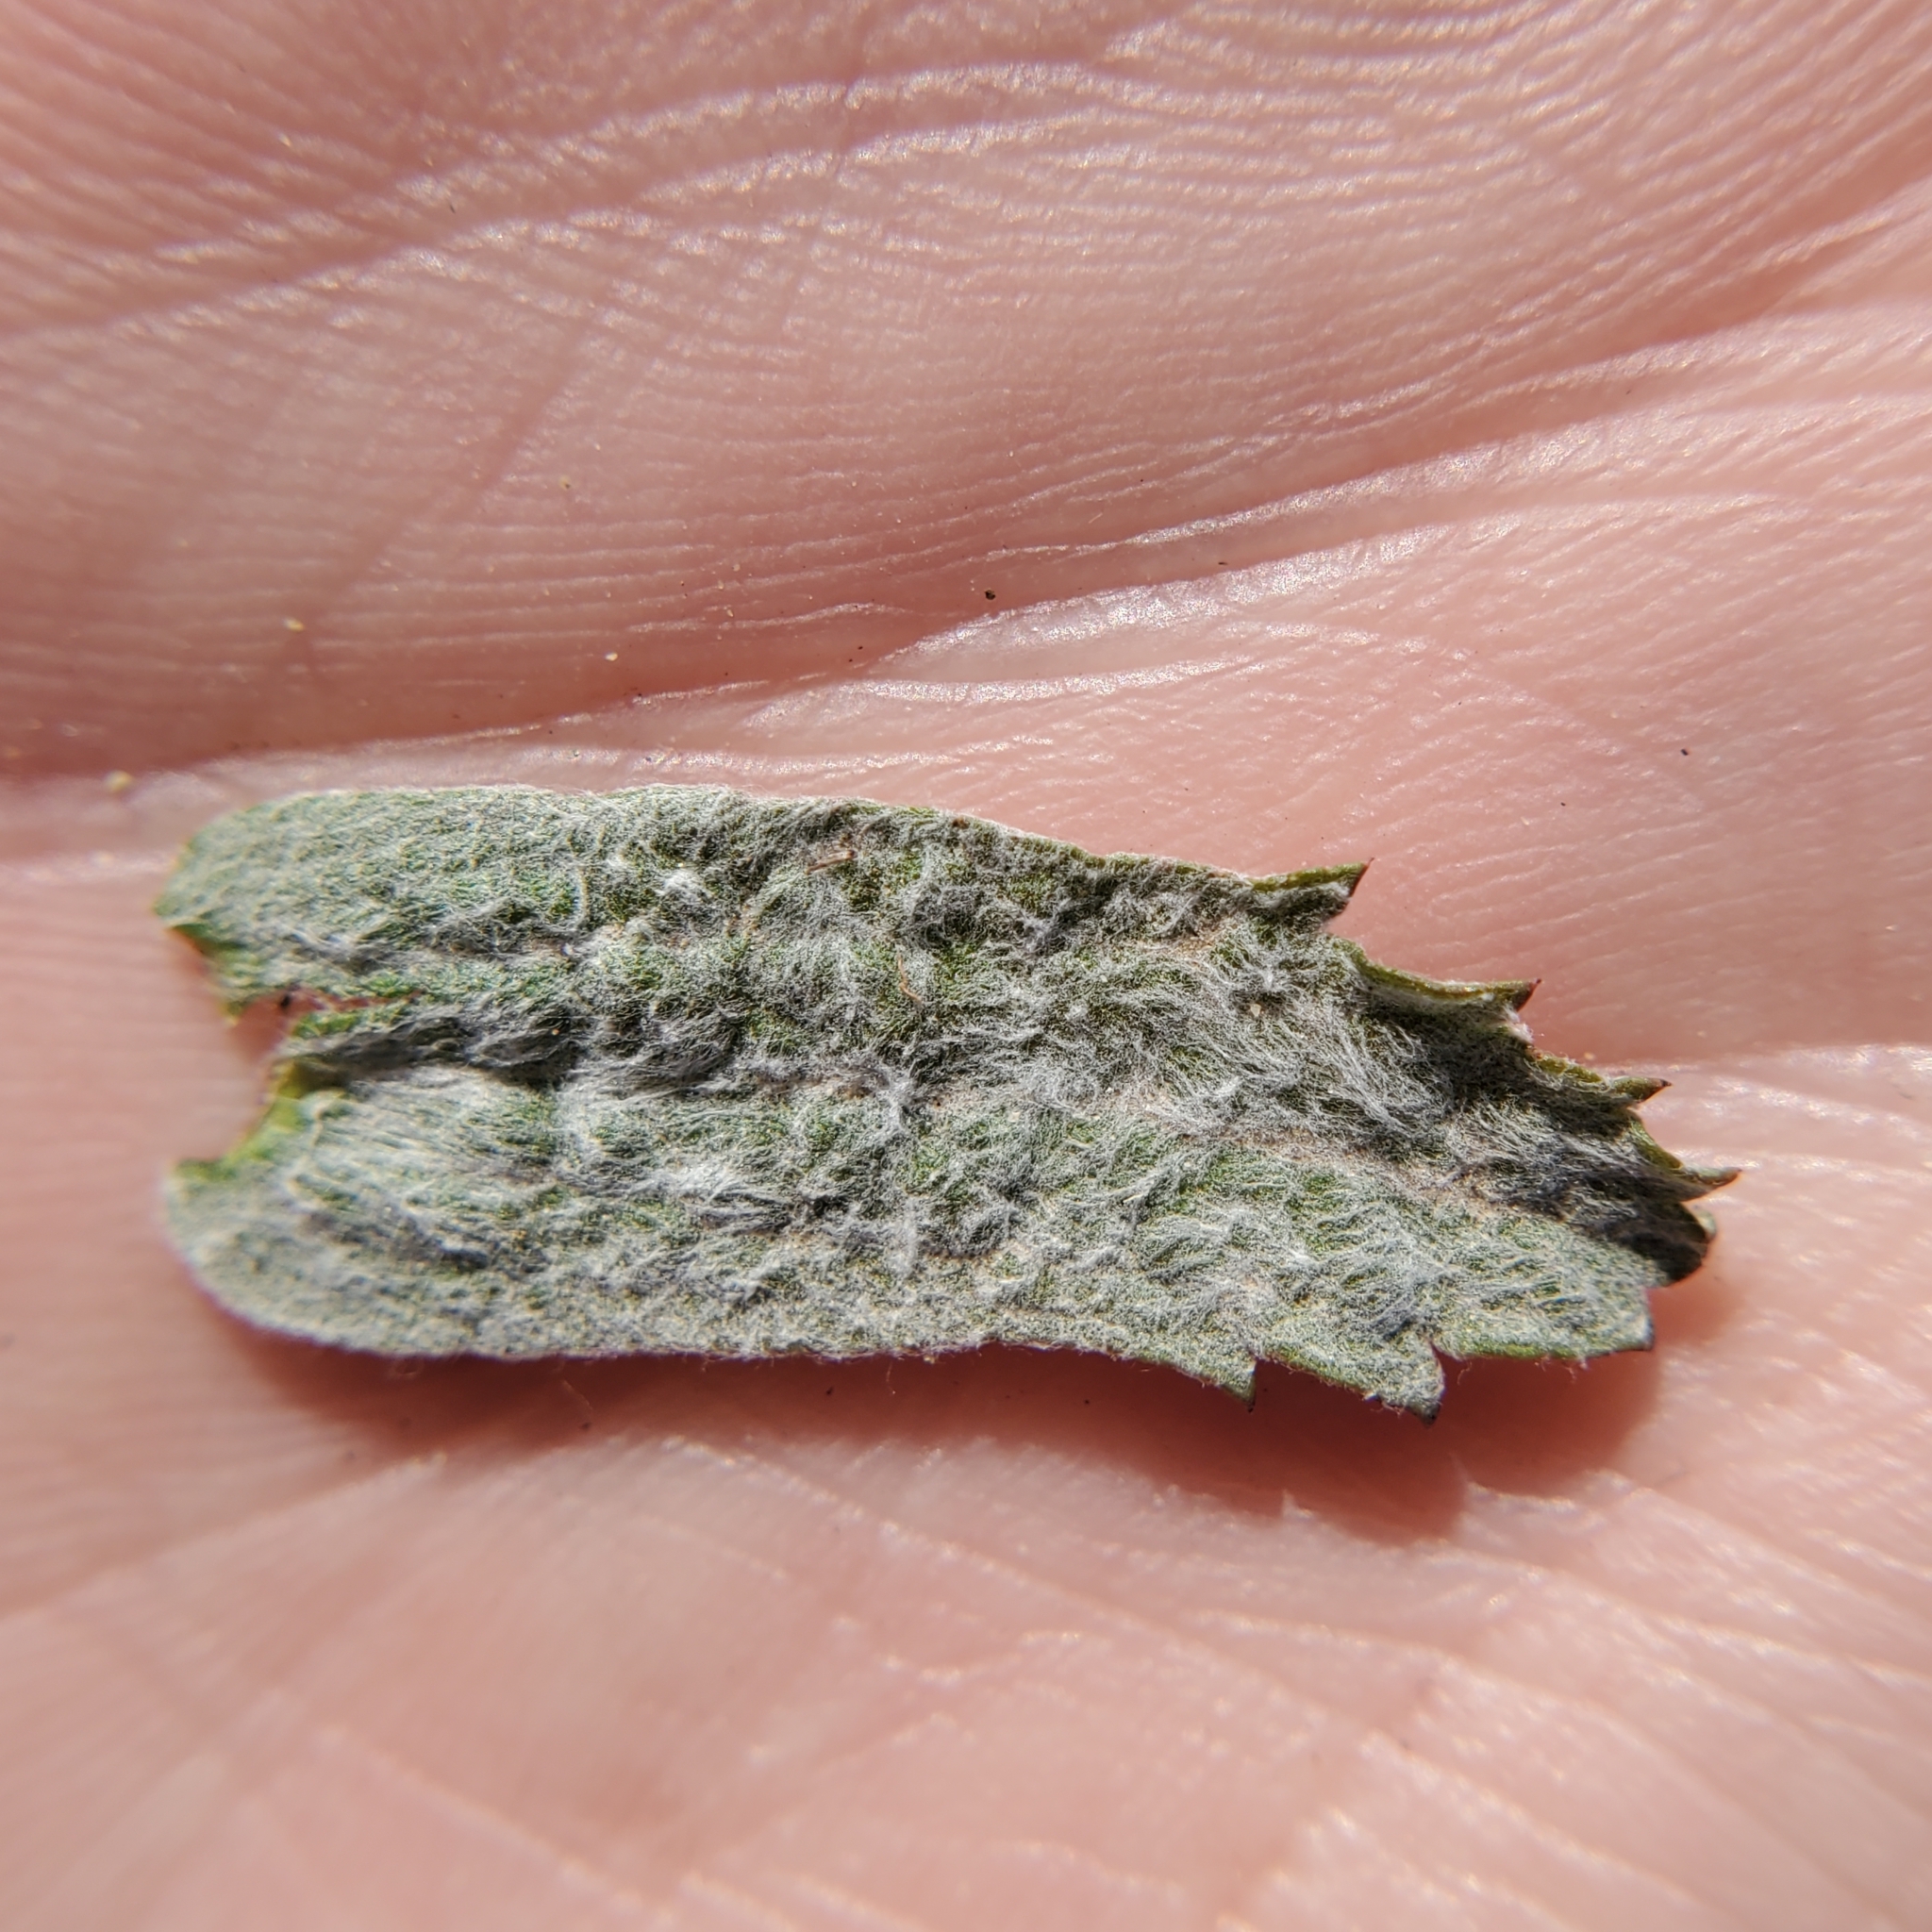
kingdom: Plantae
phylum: Tracheophyta
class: Magnoliopsida
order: Asterales
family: Asteraceae
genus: Corethrogyne
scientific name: Corethrogyne filaginifolia
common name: Sand-aster
